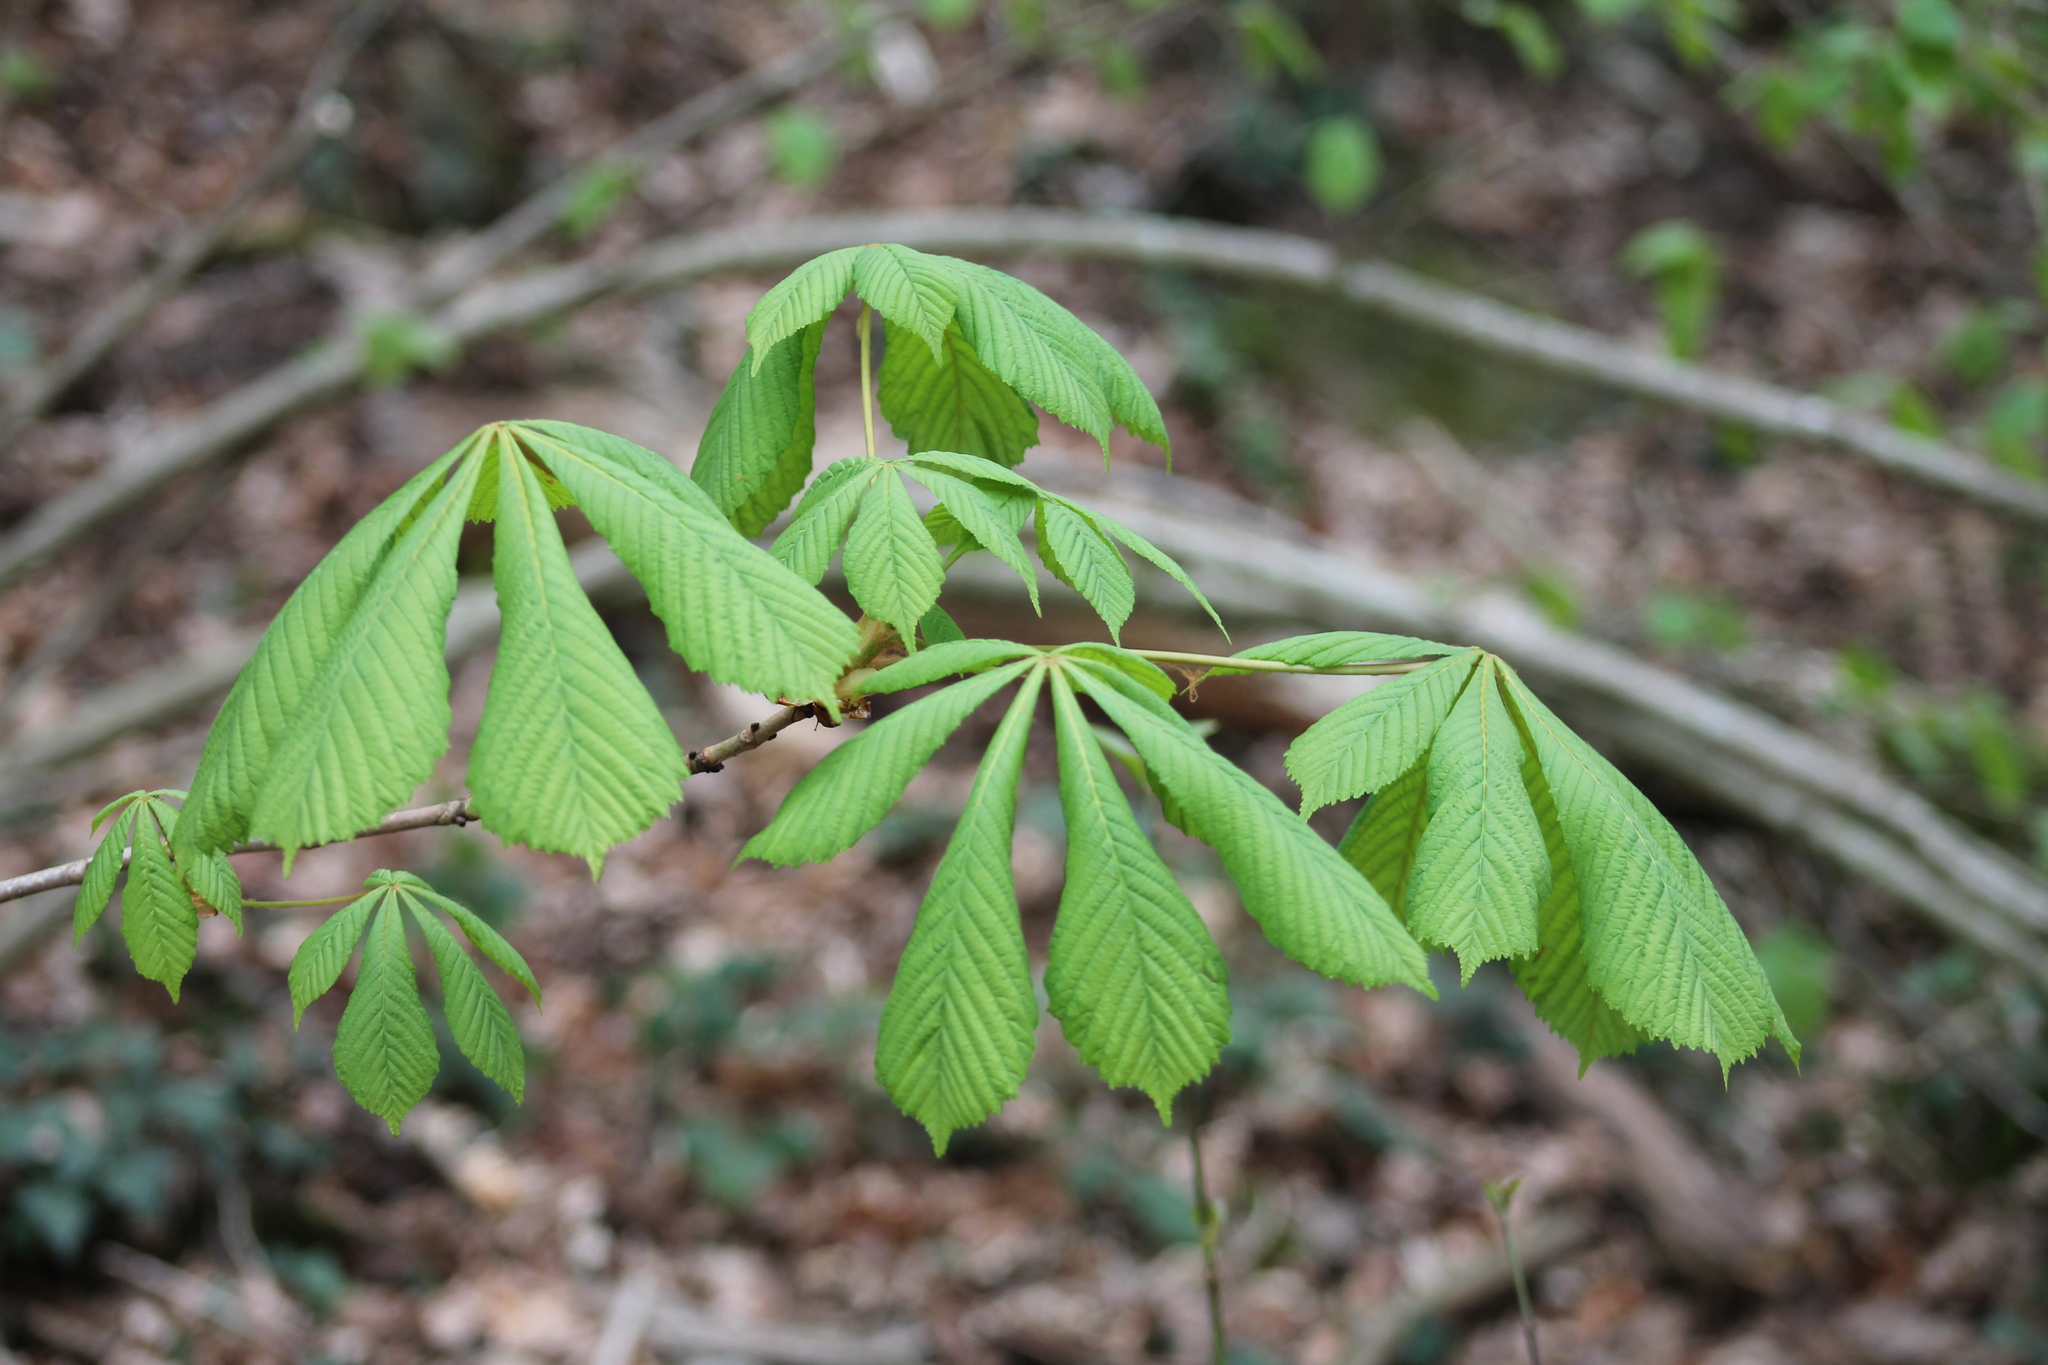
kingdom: Plantae
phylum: Tracheophyta
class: Magnoliopsida
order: Sapindales
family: Sapindaceae
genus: Aesculus
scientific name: Aesculus hippocastanum
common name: Horse-chestnut
